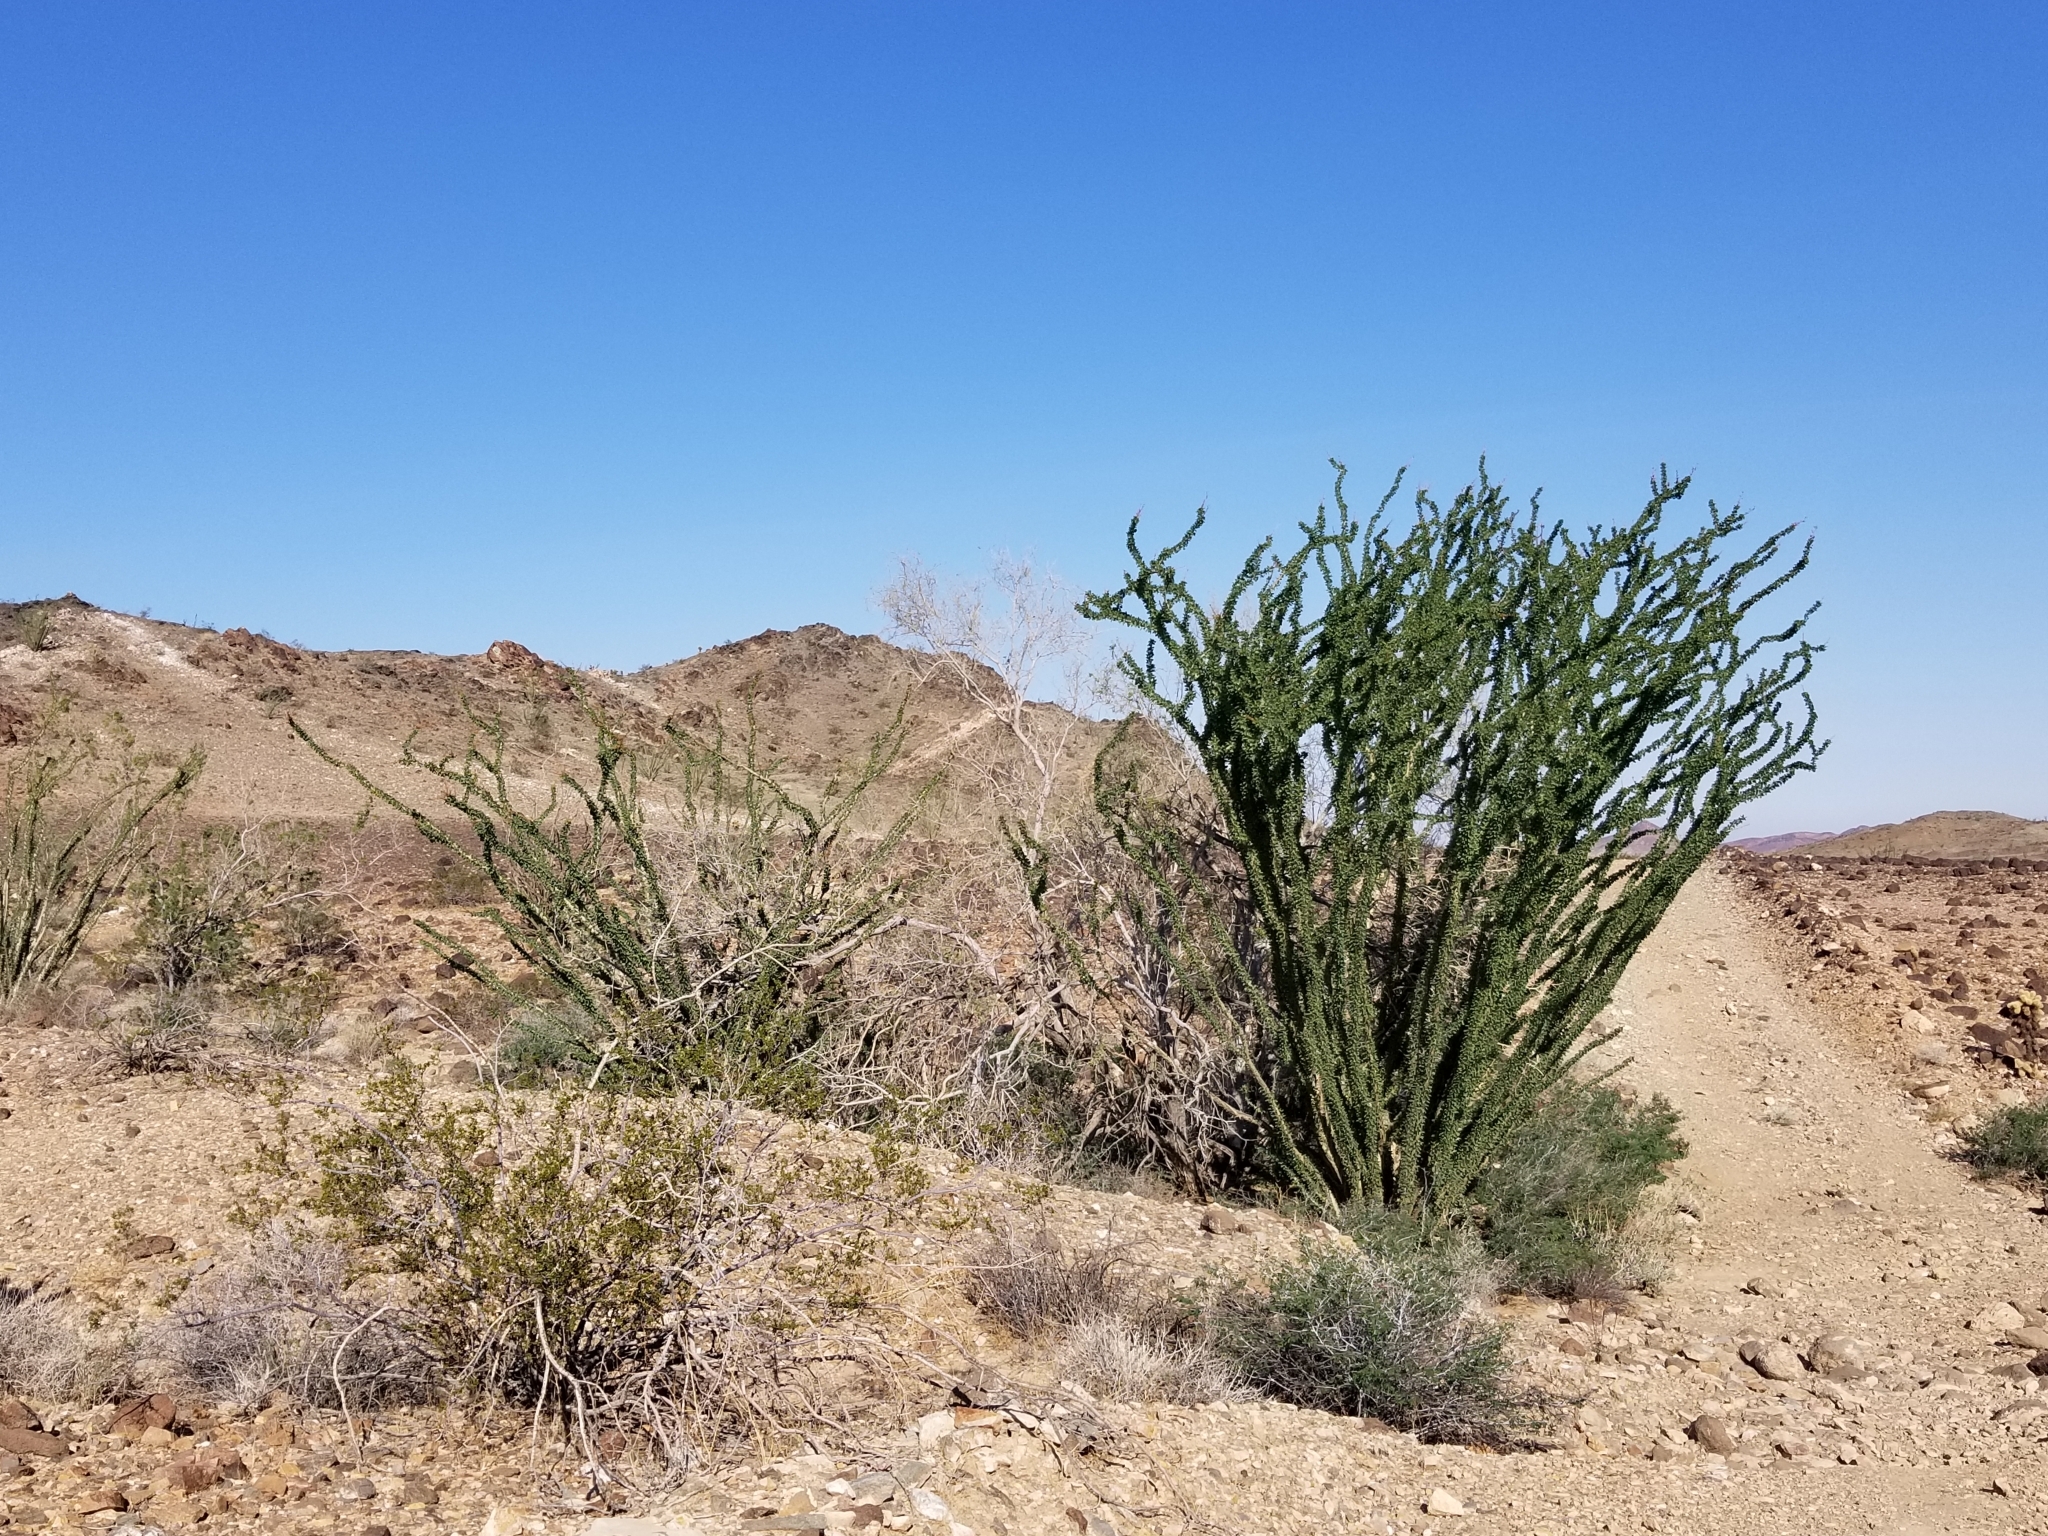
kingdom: Plantae
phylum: Tracheophyta
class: Magnoliopsida
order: Ericales
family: Fouquieriaceae
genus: Fouquieria
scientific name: Fouquieria splendens
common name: Vine-cactus
